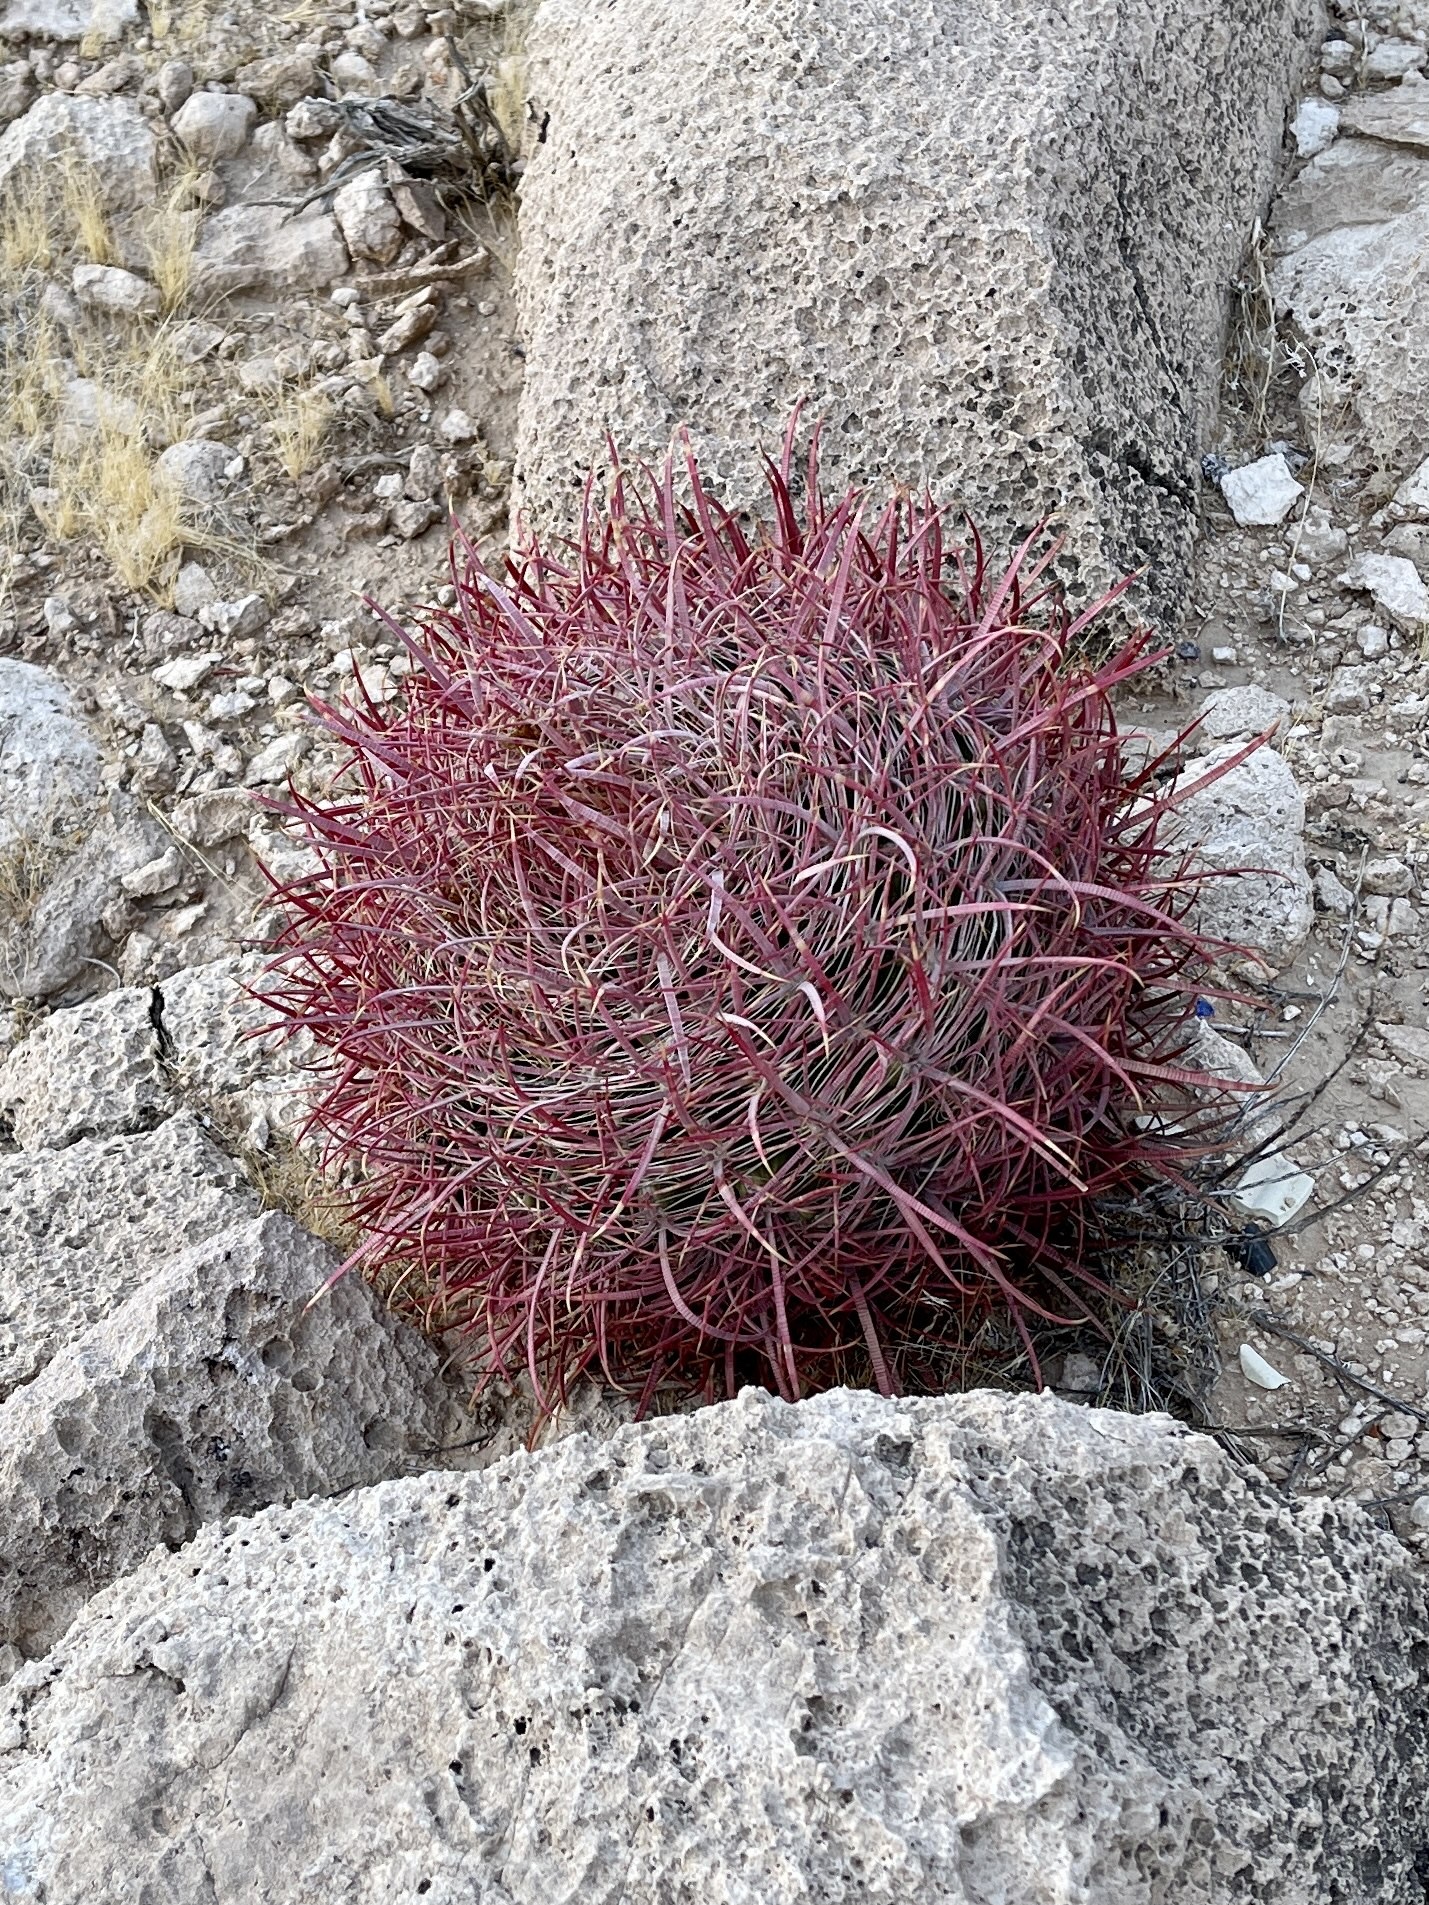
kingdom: Plantae
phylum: Tracheophyta
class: Magnoliopsida
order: Caryophyllales
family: Cactaceae
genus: Ferocactus
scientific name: Ferocactus cylindraceus
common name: California barrel cactus
